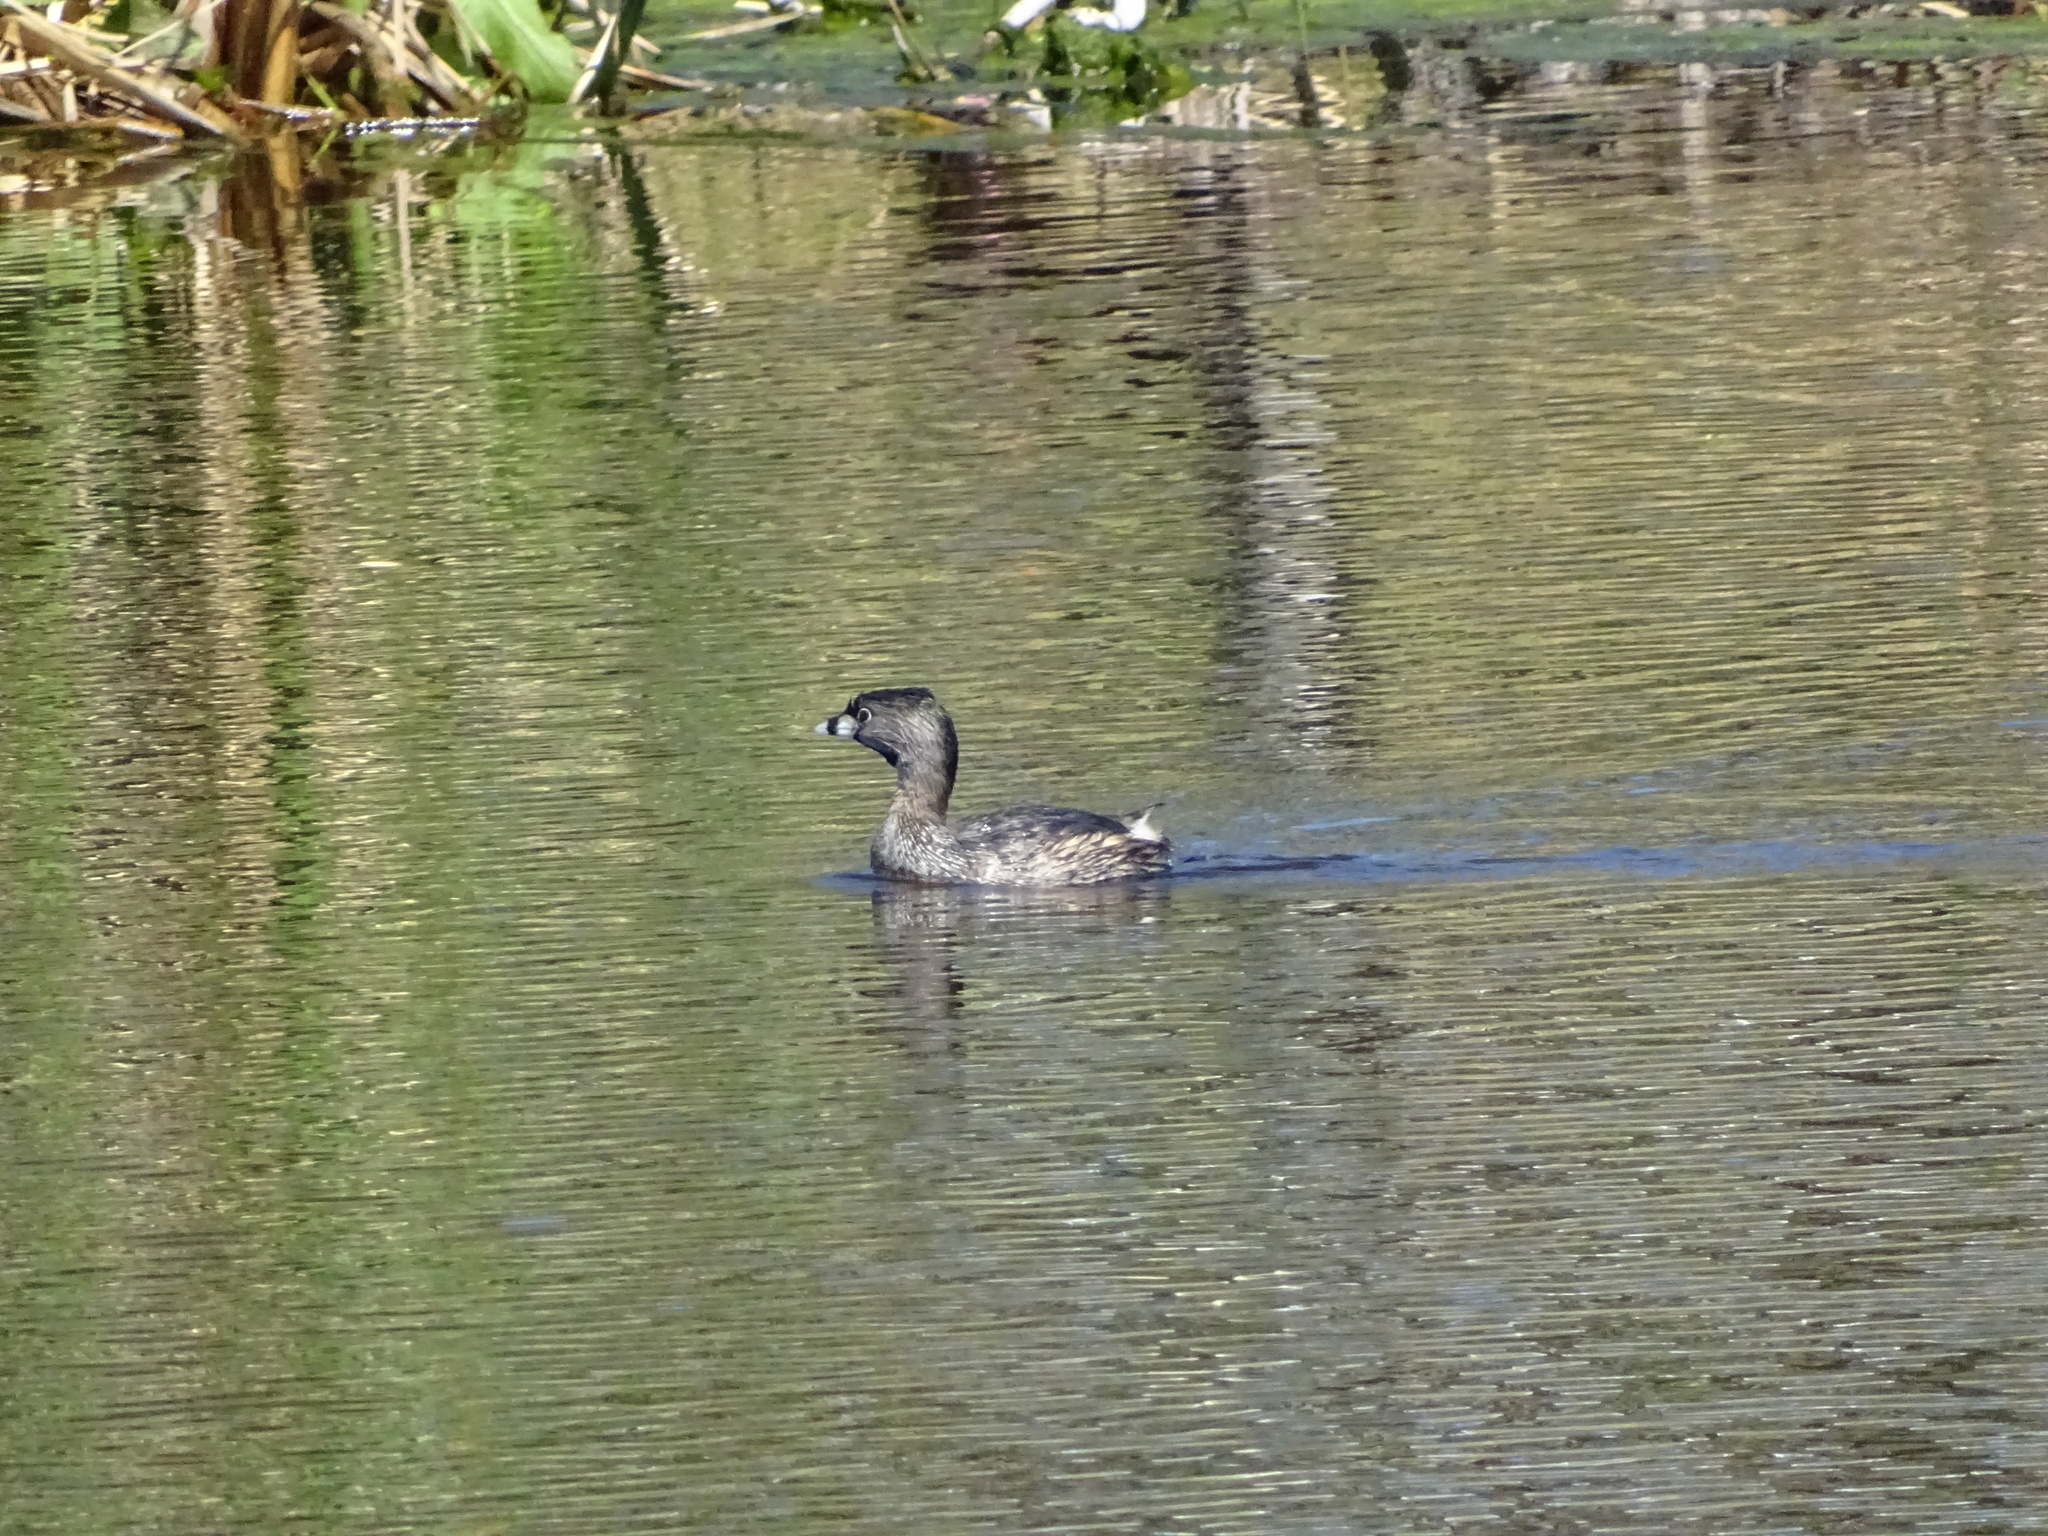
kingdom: Animalia
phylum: Chordata
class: Aves
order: Podicipediformes
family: Podicipedidae
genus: Podilymbus
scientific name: Podilymbus podiceps
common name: Pied-billed grebe
